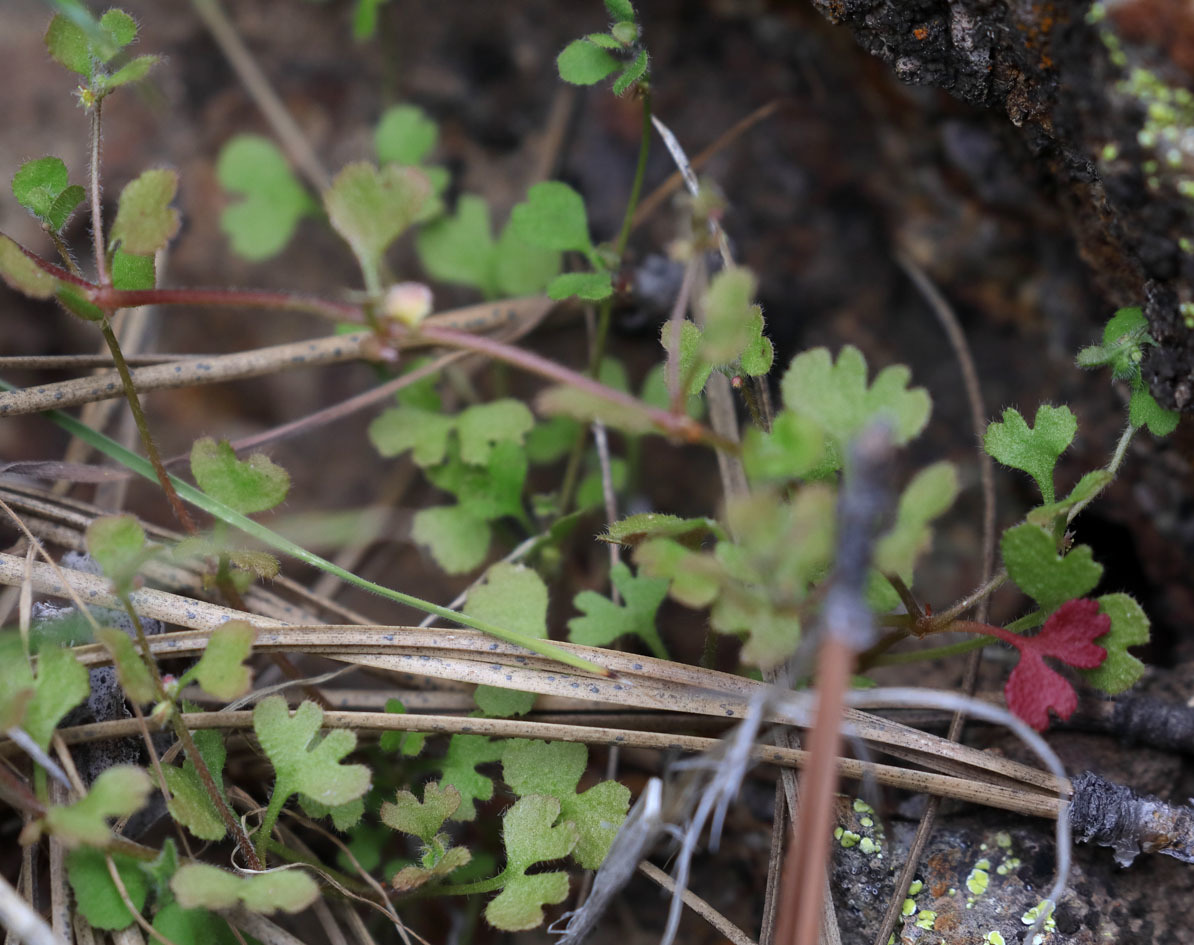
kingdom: Plantae
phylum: Tracheophyta
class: Magnoliopsida
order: Caryophyllales
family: Polygonaceae
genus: Pterostegia
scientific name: Pterostegia drymarioides
